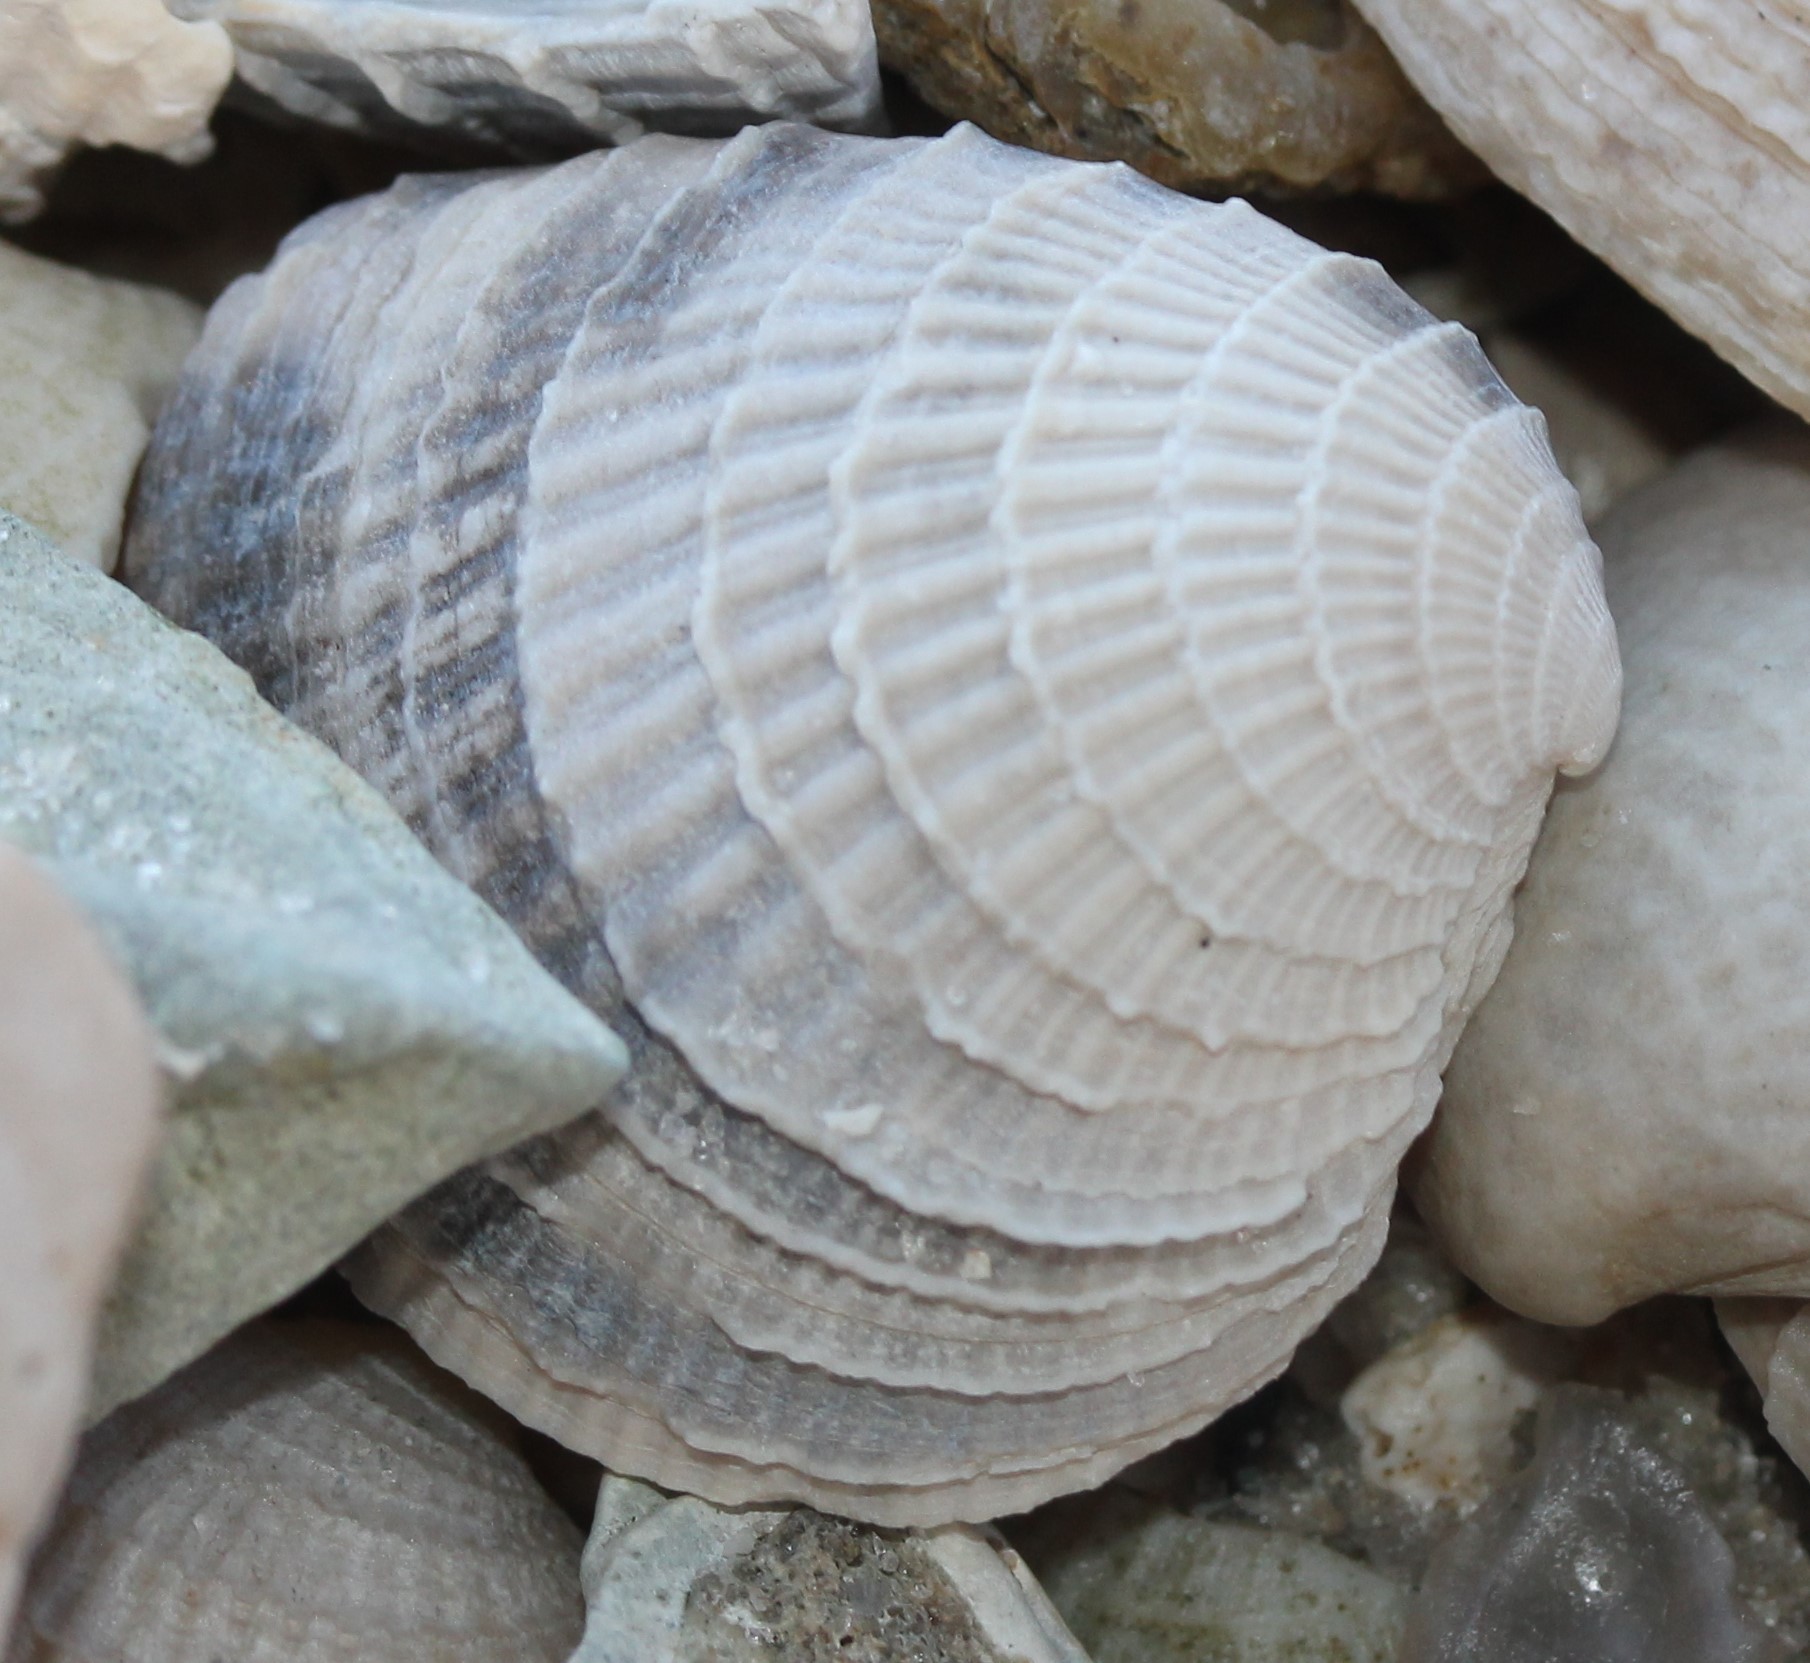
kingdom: Animalia
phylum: Mollusca
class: Bivalvia
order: Venerida
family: Veneridae
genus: Chione
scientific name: Chione elevata
